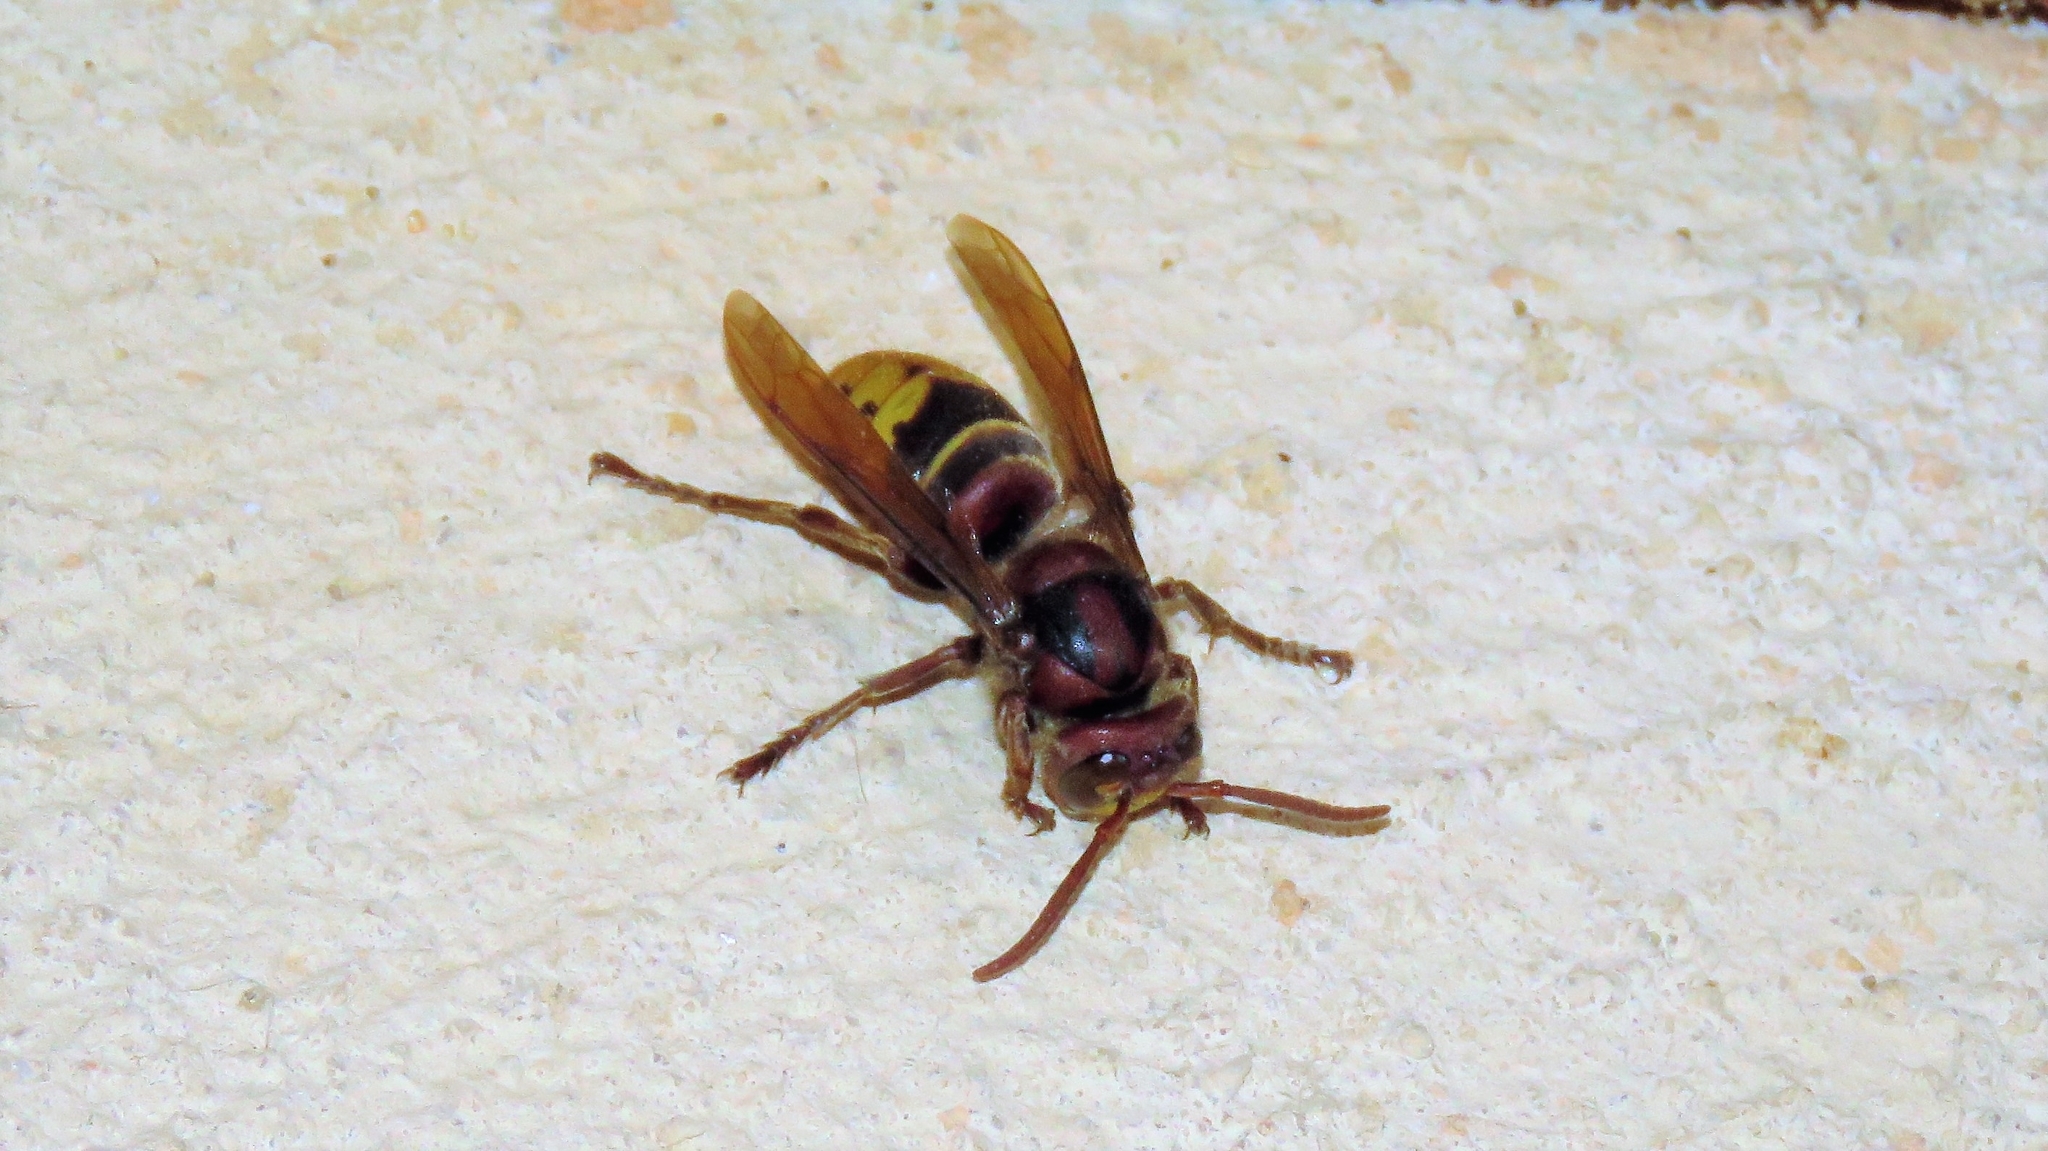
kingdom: Animalia
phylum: Arthropoda
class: Insecta
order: Hymenoptera
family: Vespidae
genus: Vespa
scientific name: Vespa crabro
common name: Hornet
